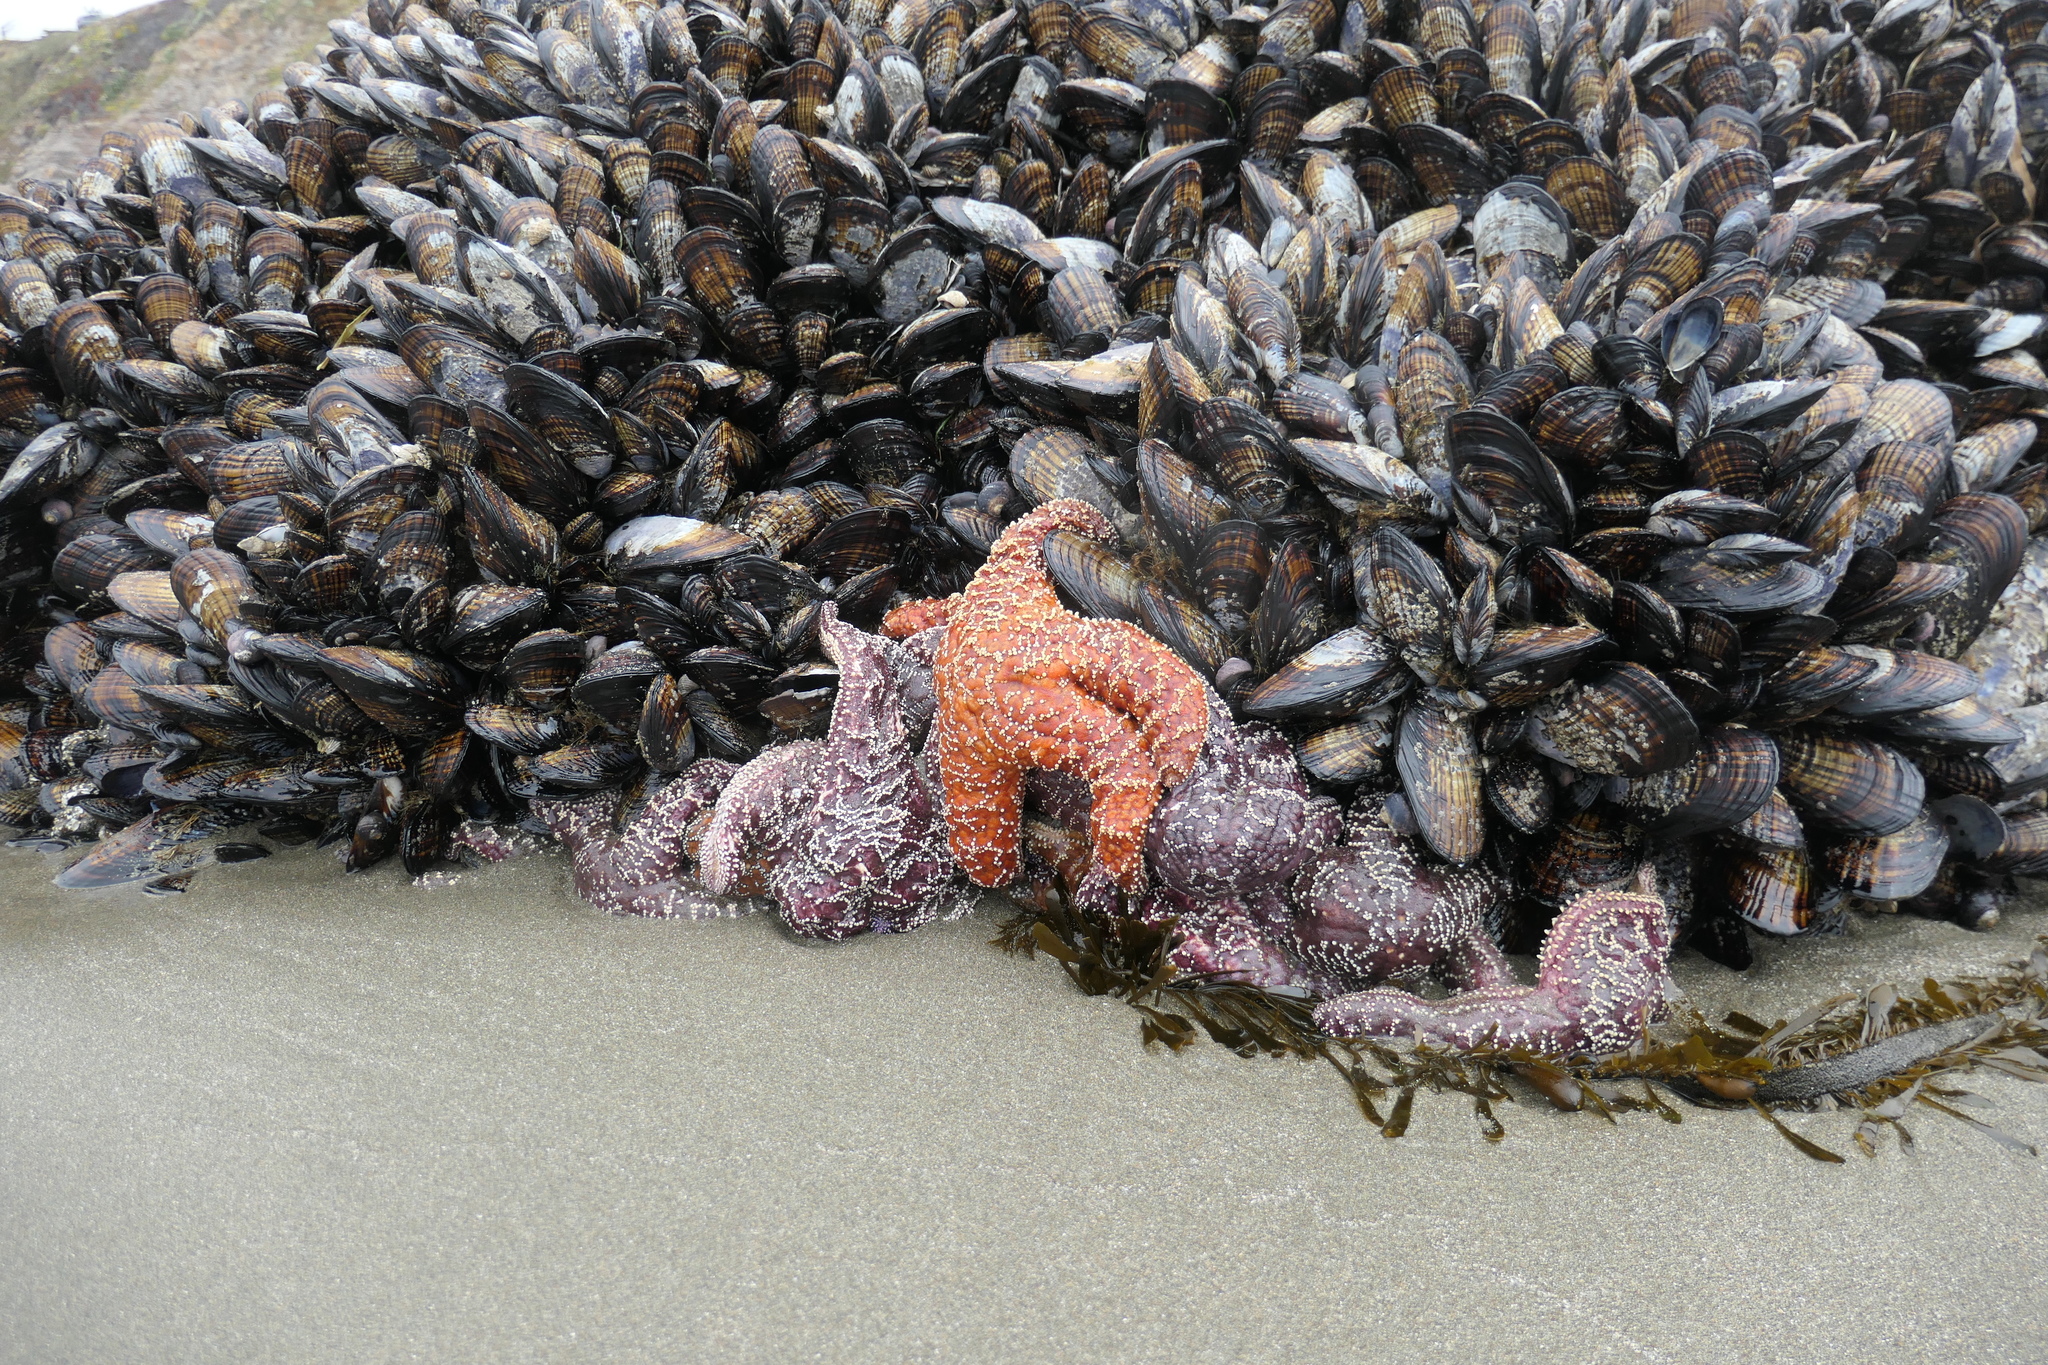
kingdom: Animalia
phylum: Echinodermata
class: Asteroidea
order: Forcipulatida
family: Asteriidae
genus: Pisaster
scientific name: Pisaster ochraceus
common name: Ochre stars
